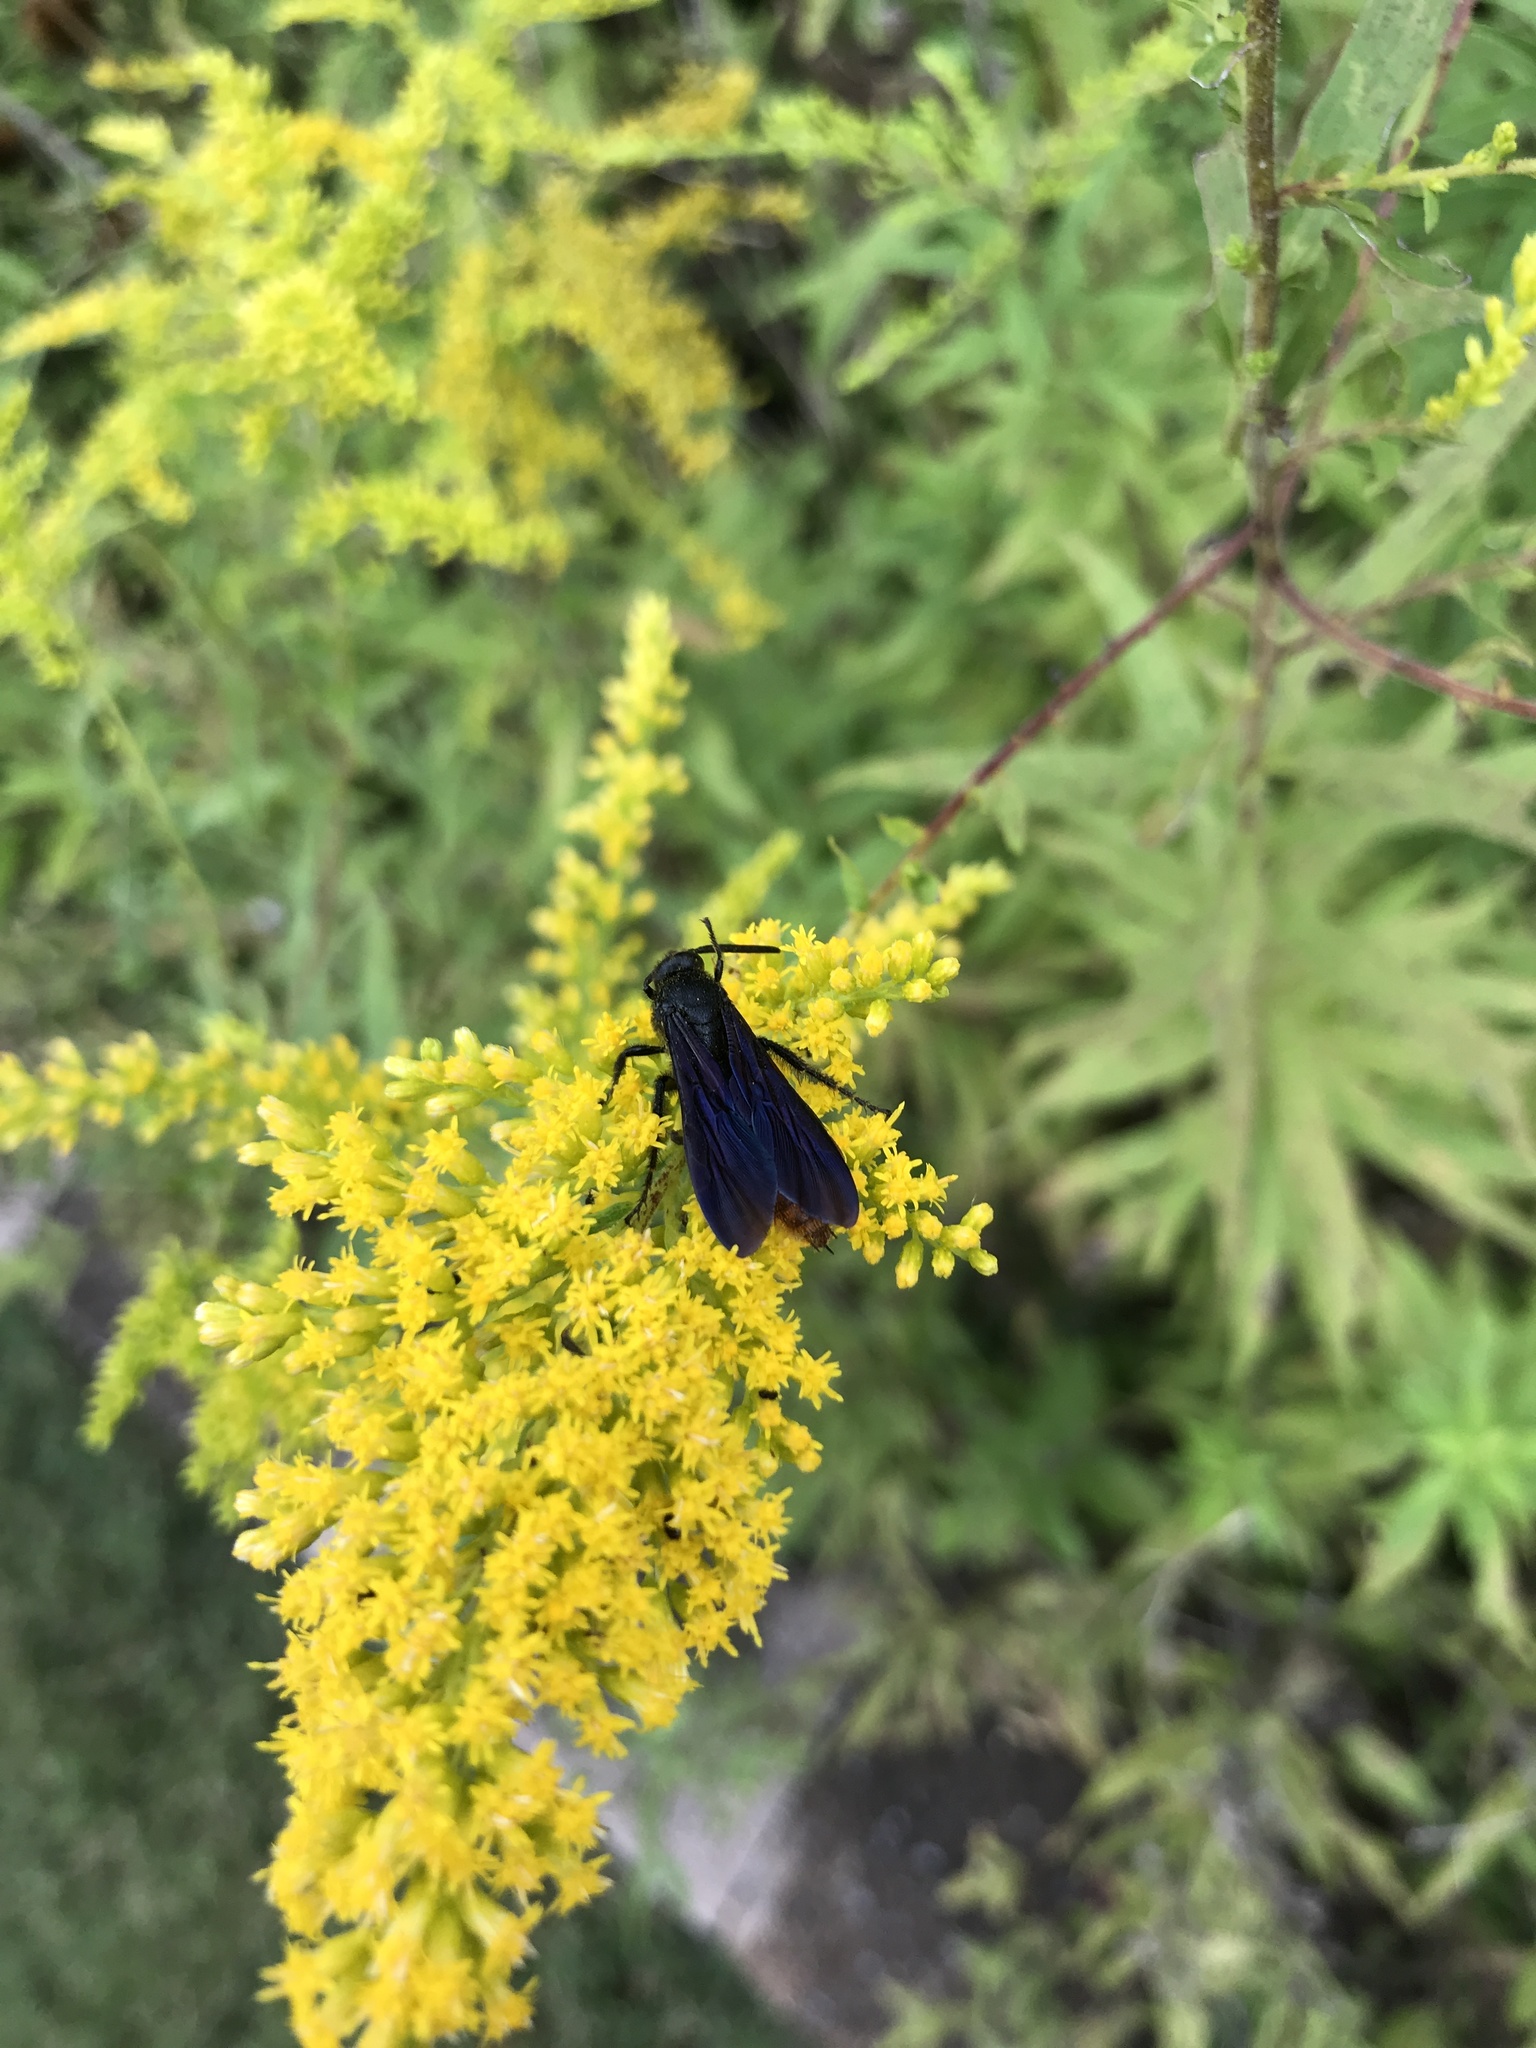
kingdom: Animalia
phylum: Arthropoda
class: Insecta
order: Hymenoptera
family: Scoliidae
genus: Scolia
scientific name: Scolia dubia
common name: Blue-winged scoliid wasp
